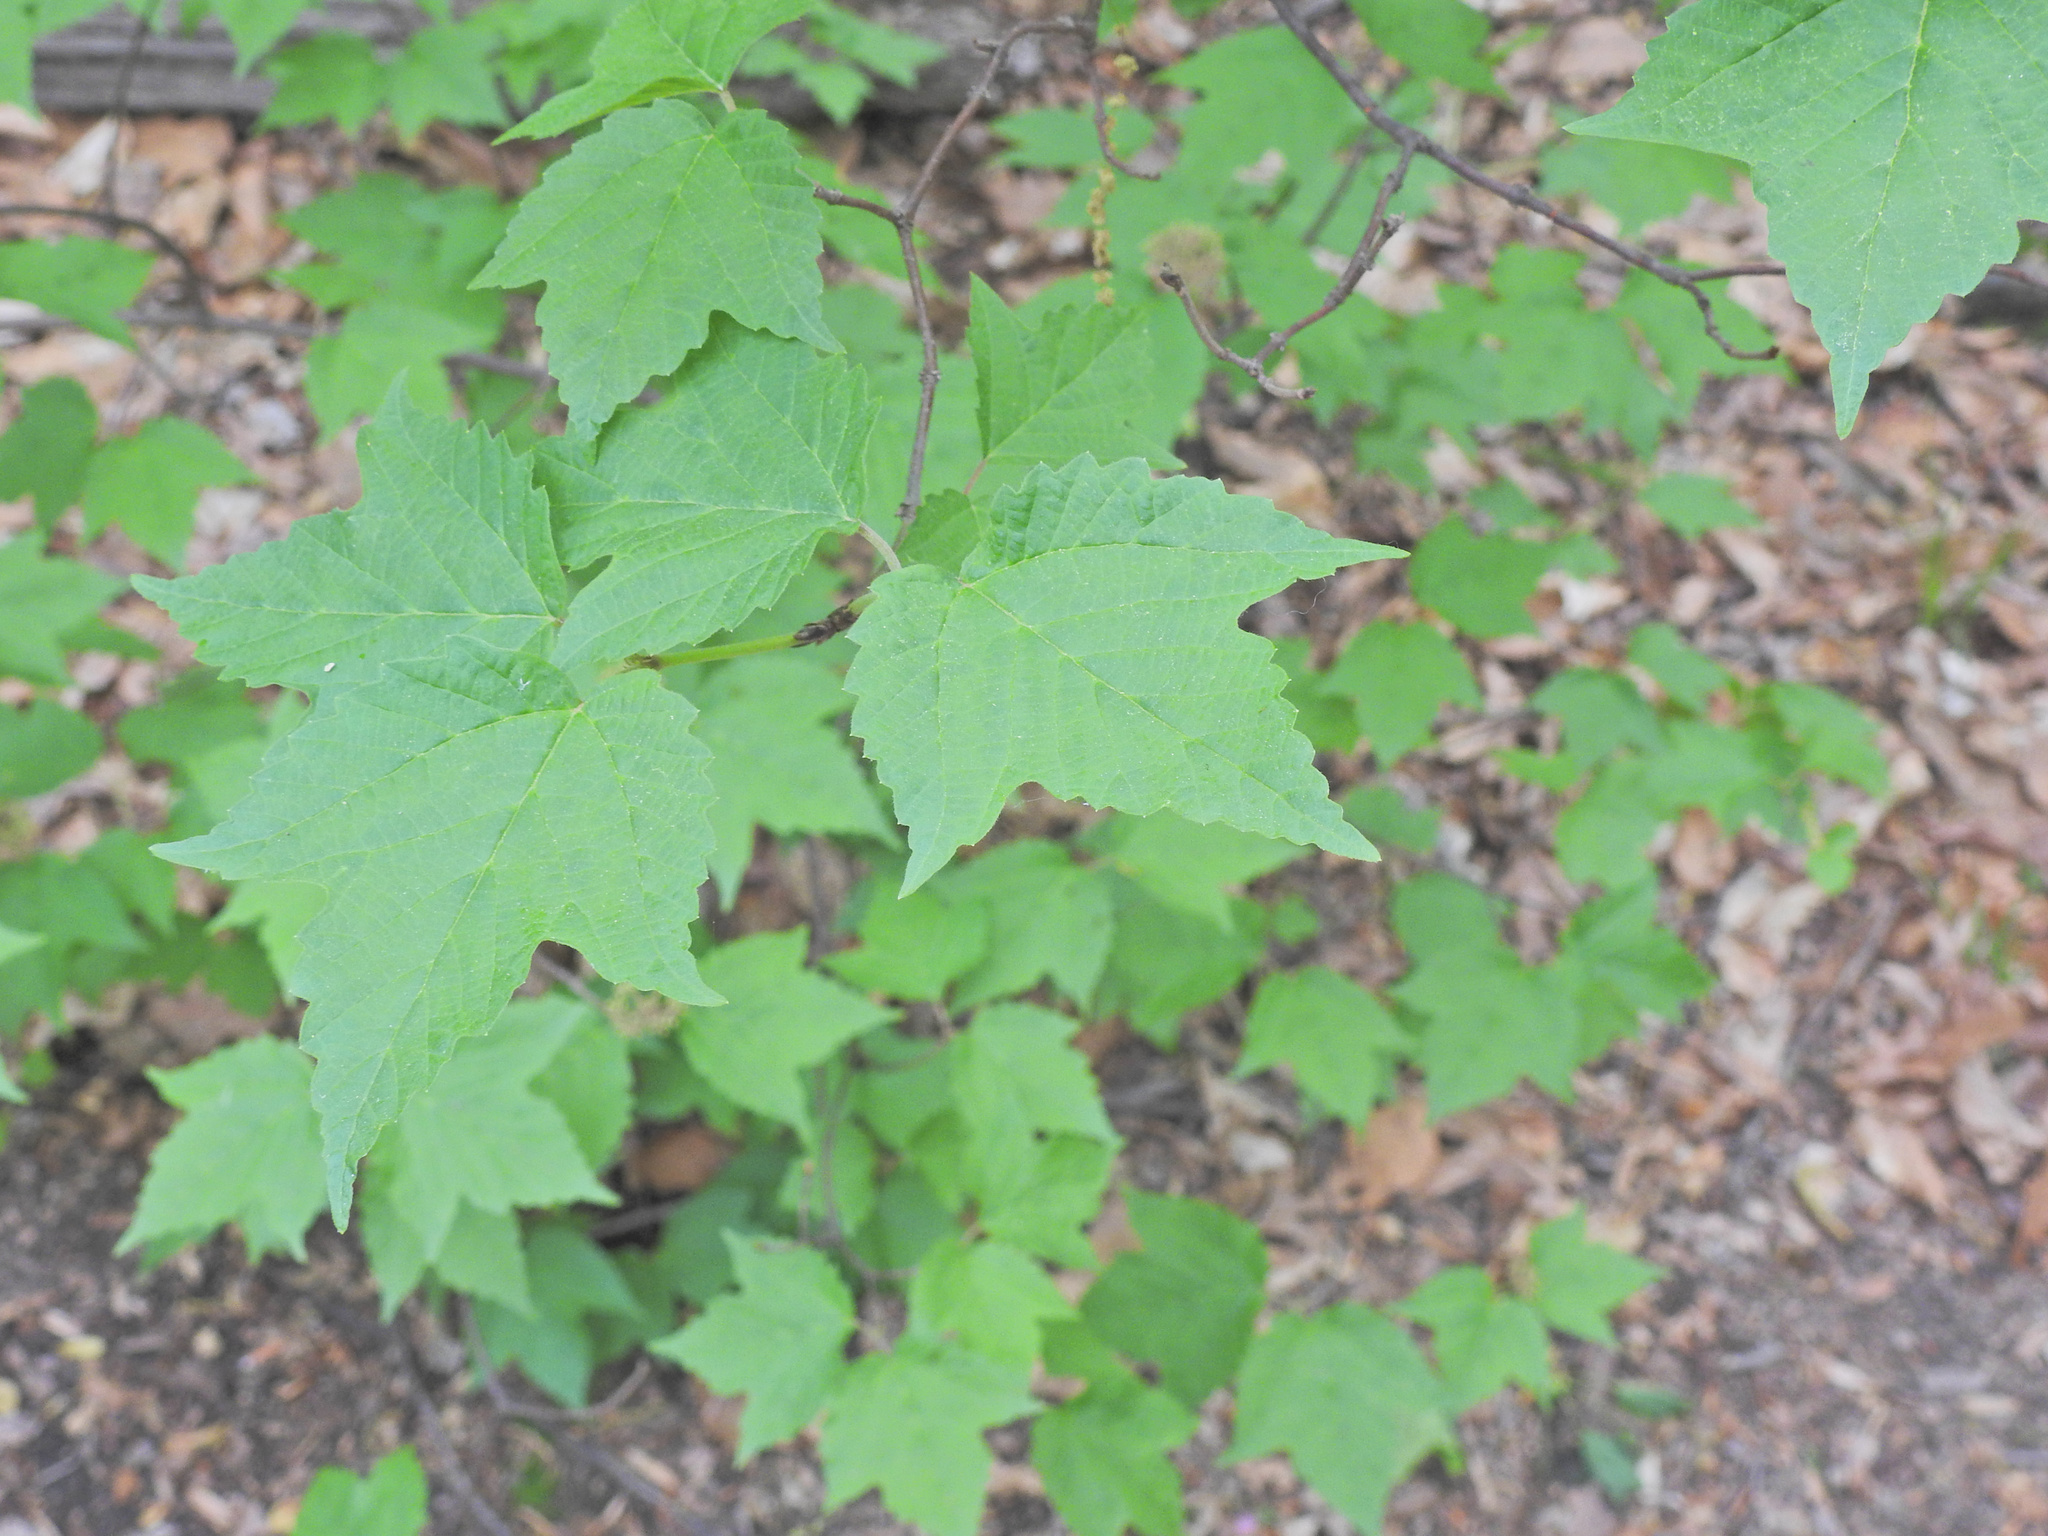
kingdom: Plantae
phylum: Tracheophyta
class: Magnoliopsida
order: Dipsacales
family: Viburnaceae
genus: Viburnum
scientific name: Viburnum acerifolium
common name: Dockmackie
